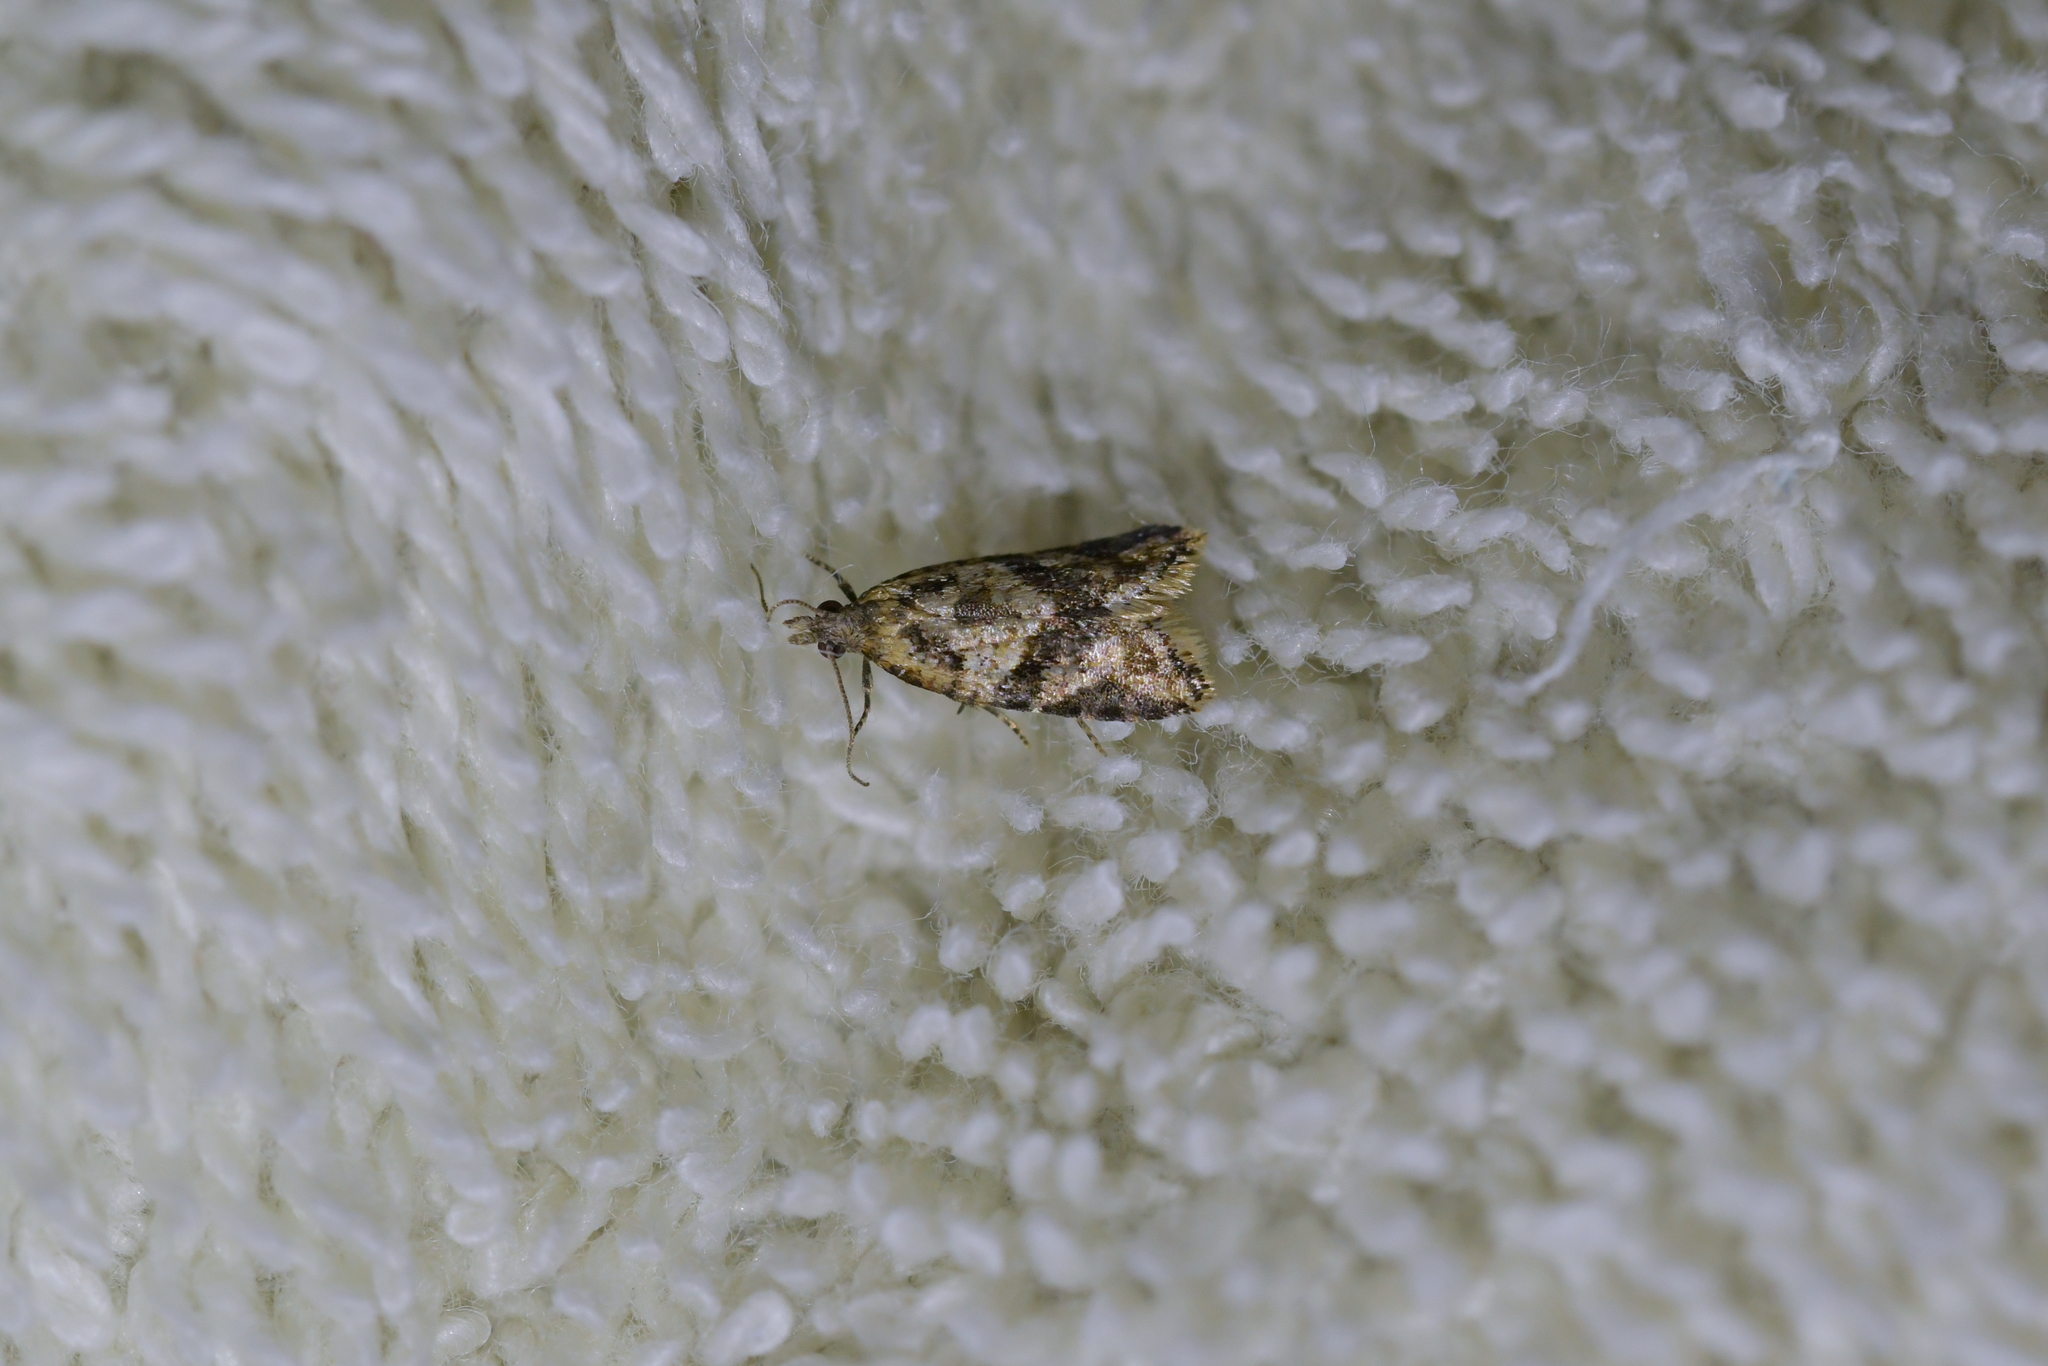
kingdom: Animalia
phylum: Arthropoda
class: Insecta
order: Lepidoptera
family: Tortricidae
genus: Capua
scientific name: Capua semiferana
